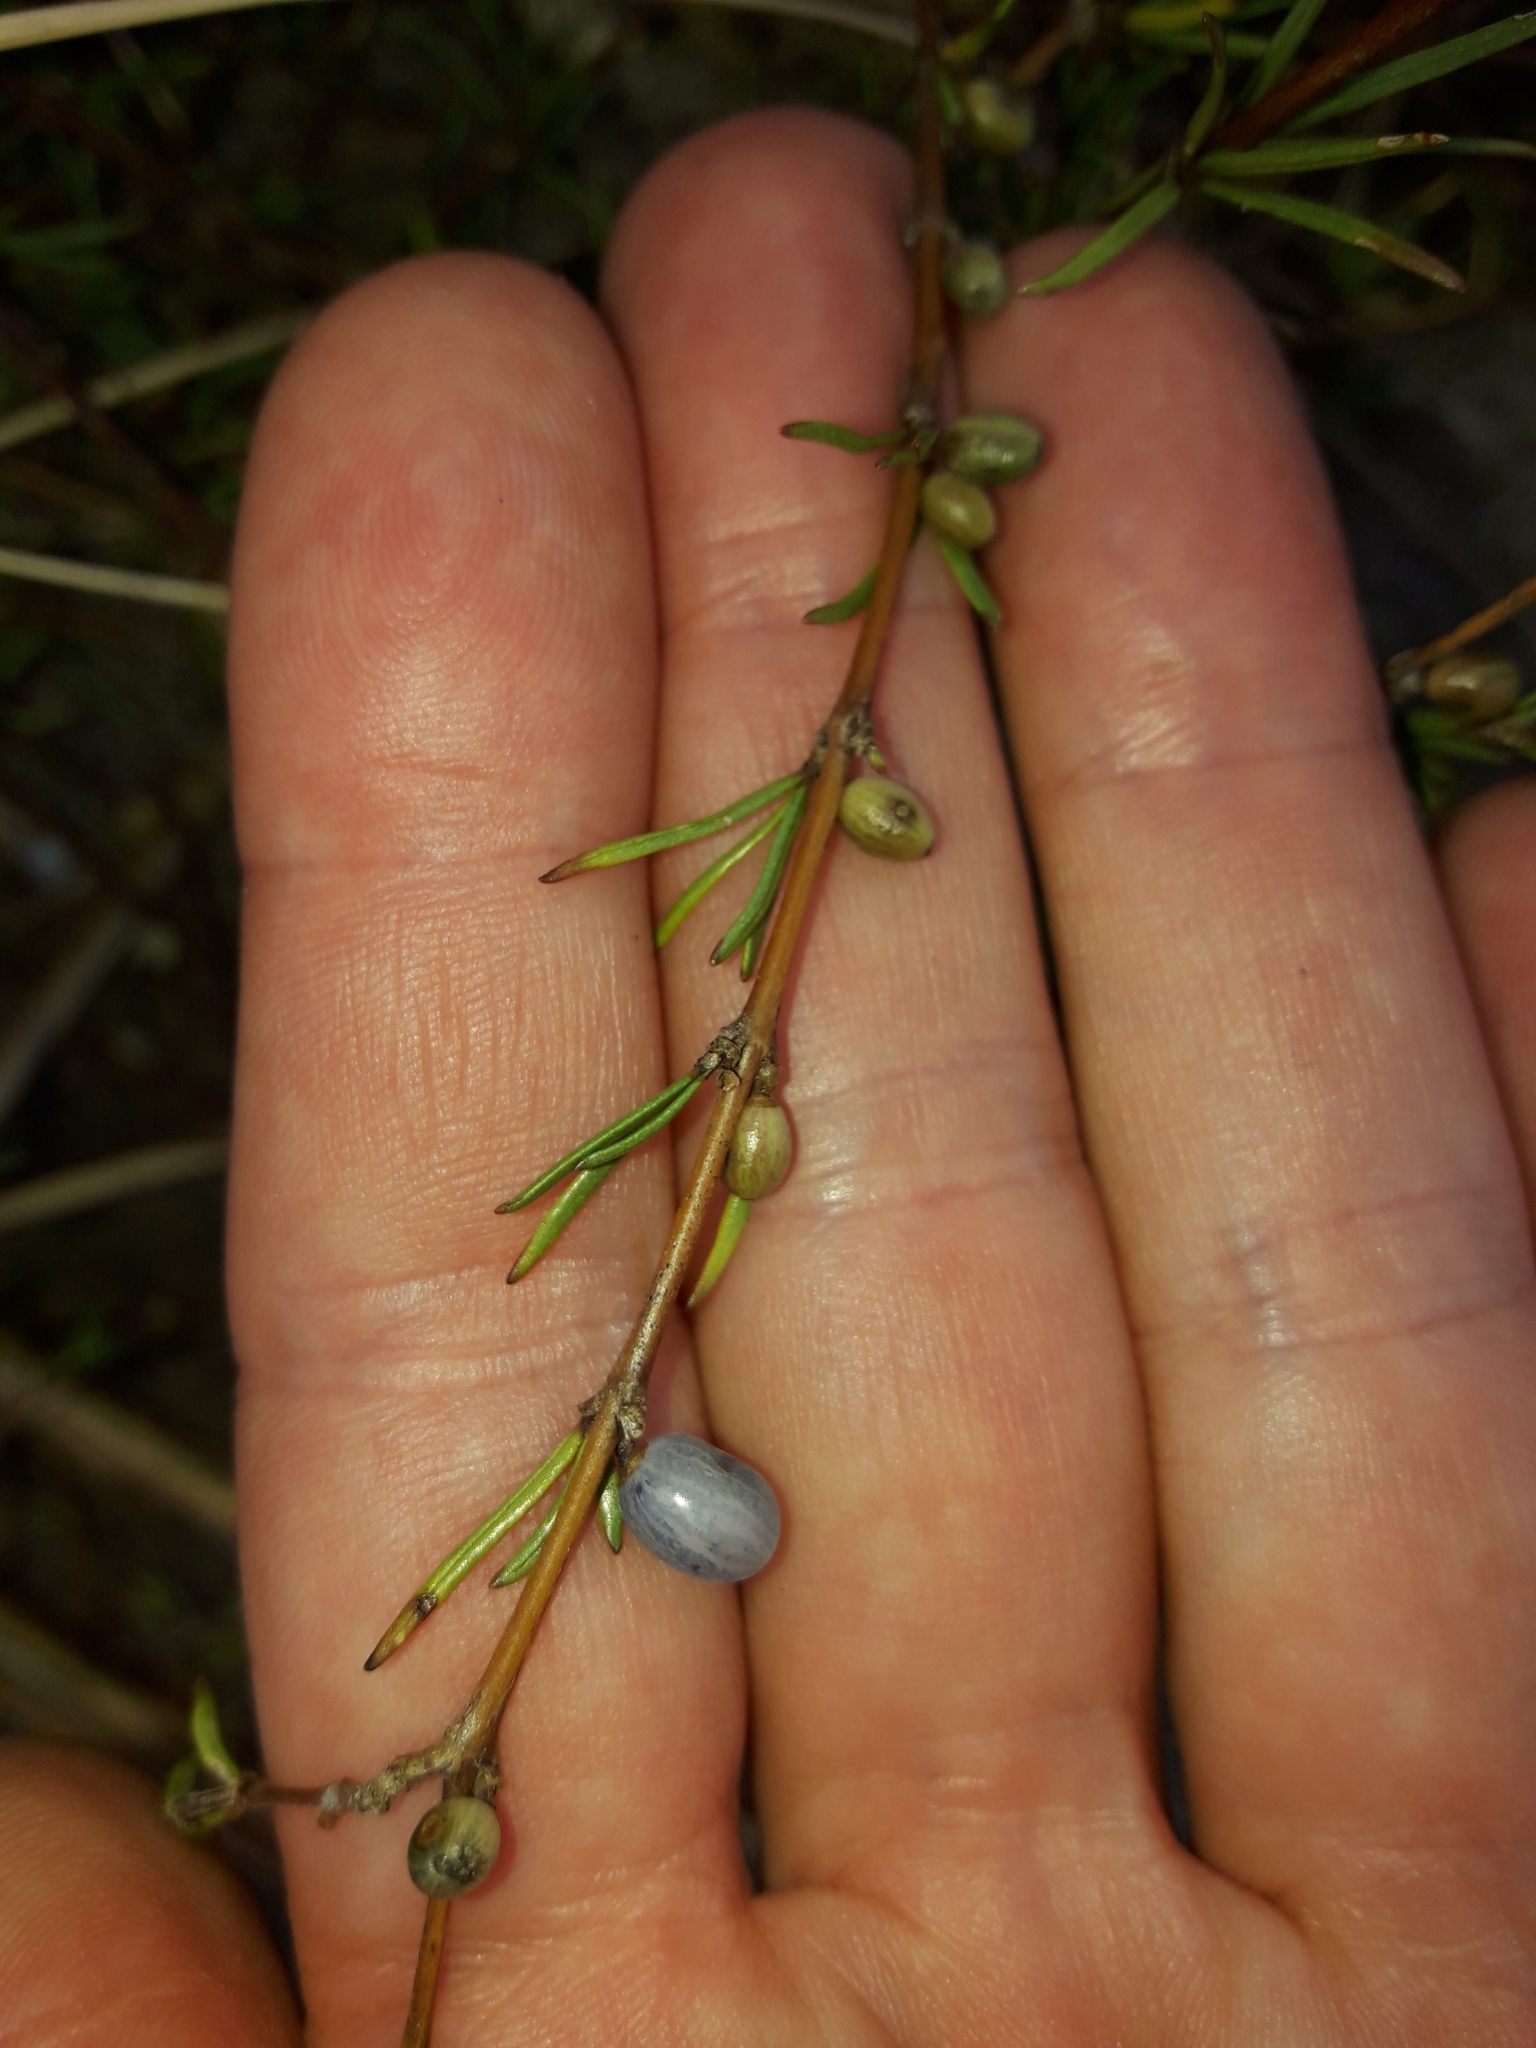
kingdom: Plantae
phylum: Tracheophyta
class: Magnoliopsida
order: Gentianales
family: Rubiaceae
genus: Coprosma
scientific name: Coprosma acerosa
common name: Sand coprosma
